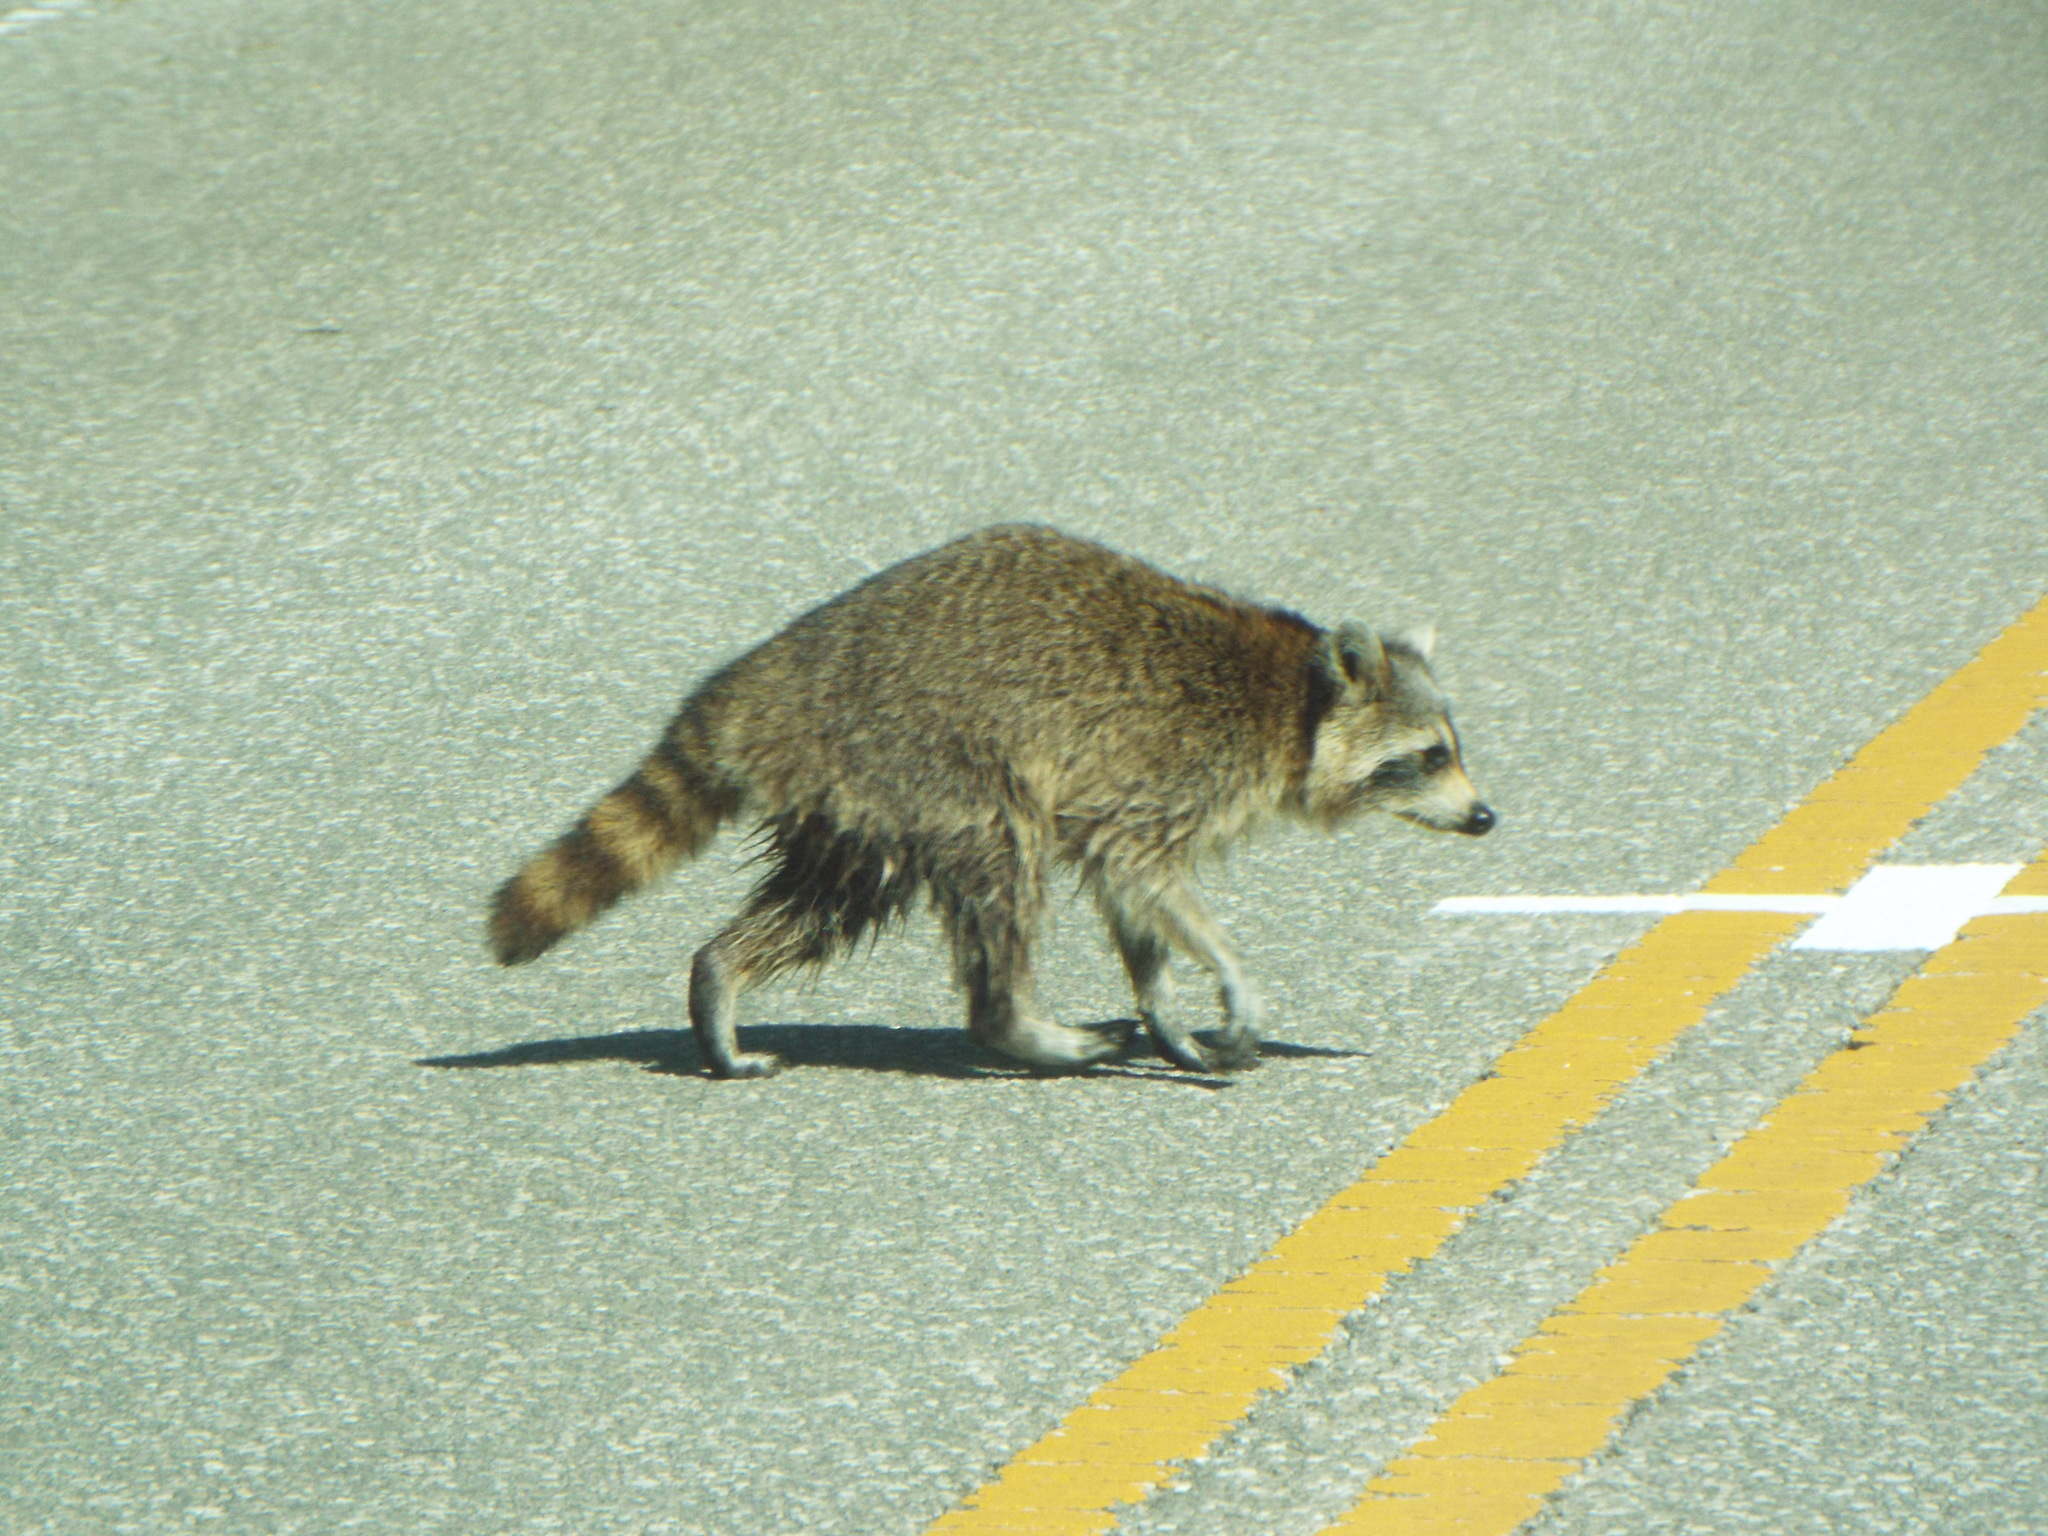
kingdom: Animalia
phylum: Chordata
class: Mammalia
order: Carnivora
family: Procyonidae
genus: Procyon
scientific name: Procyon lotor
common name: Raccoon
